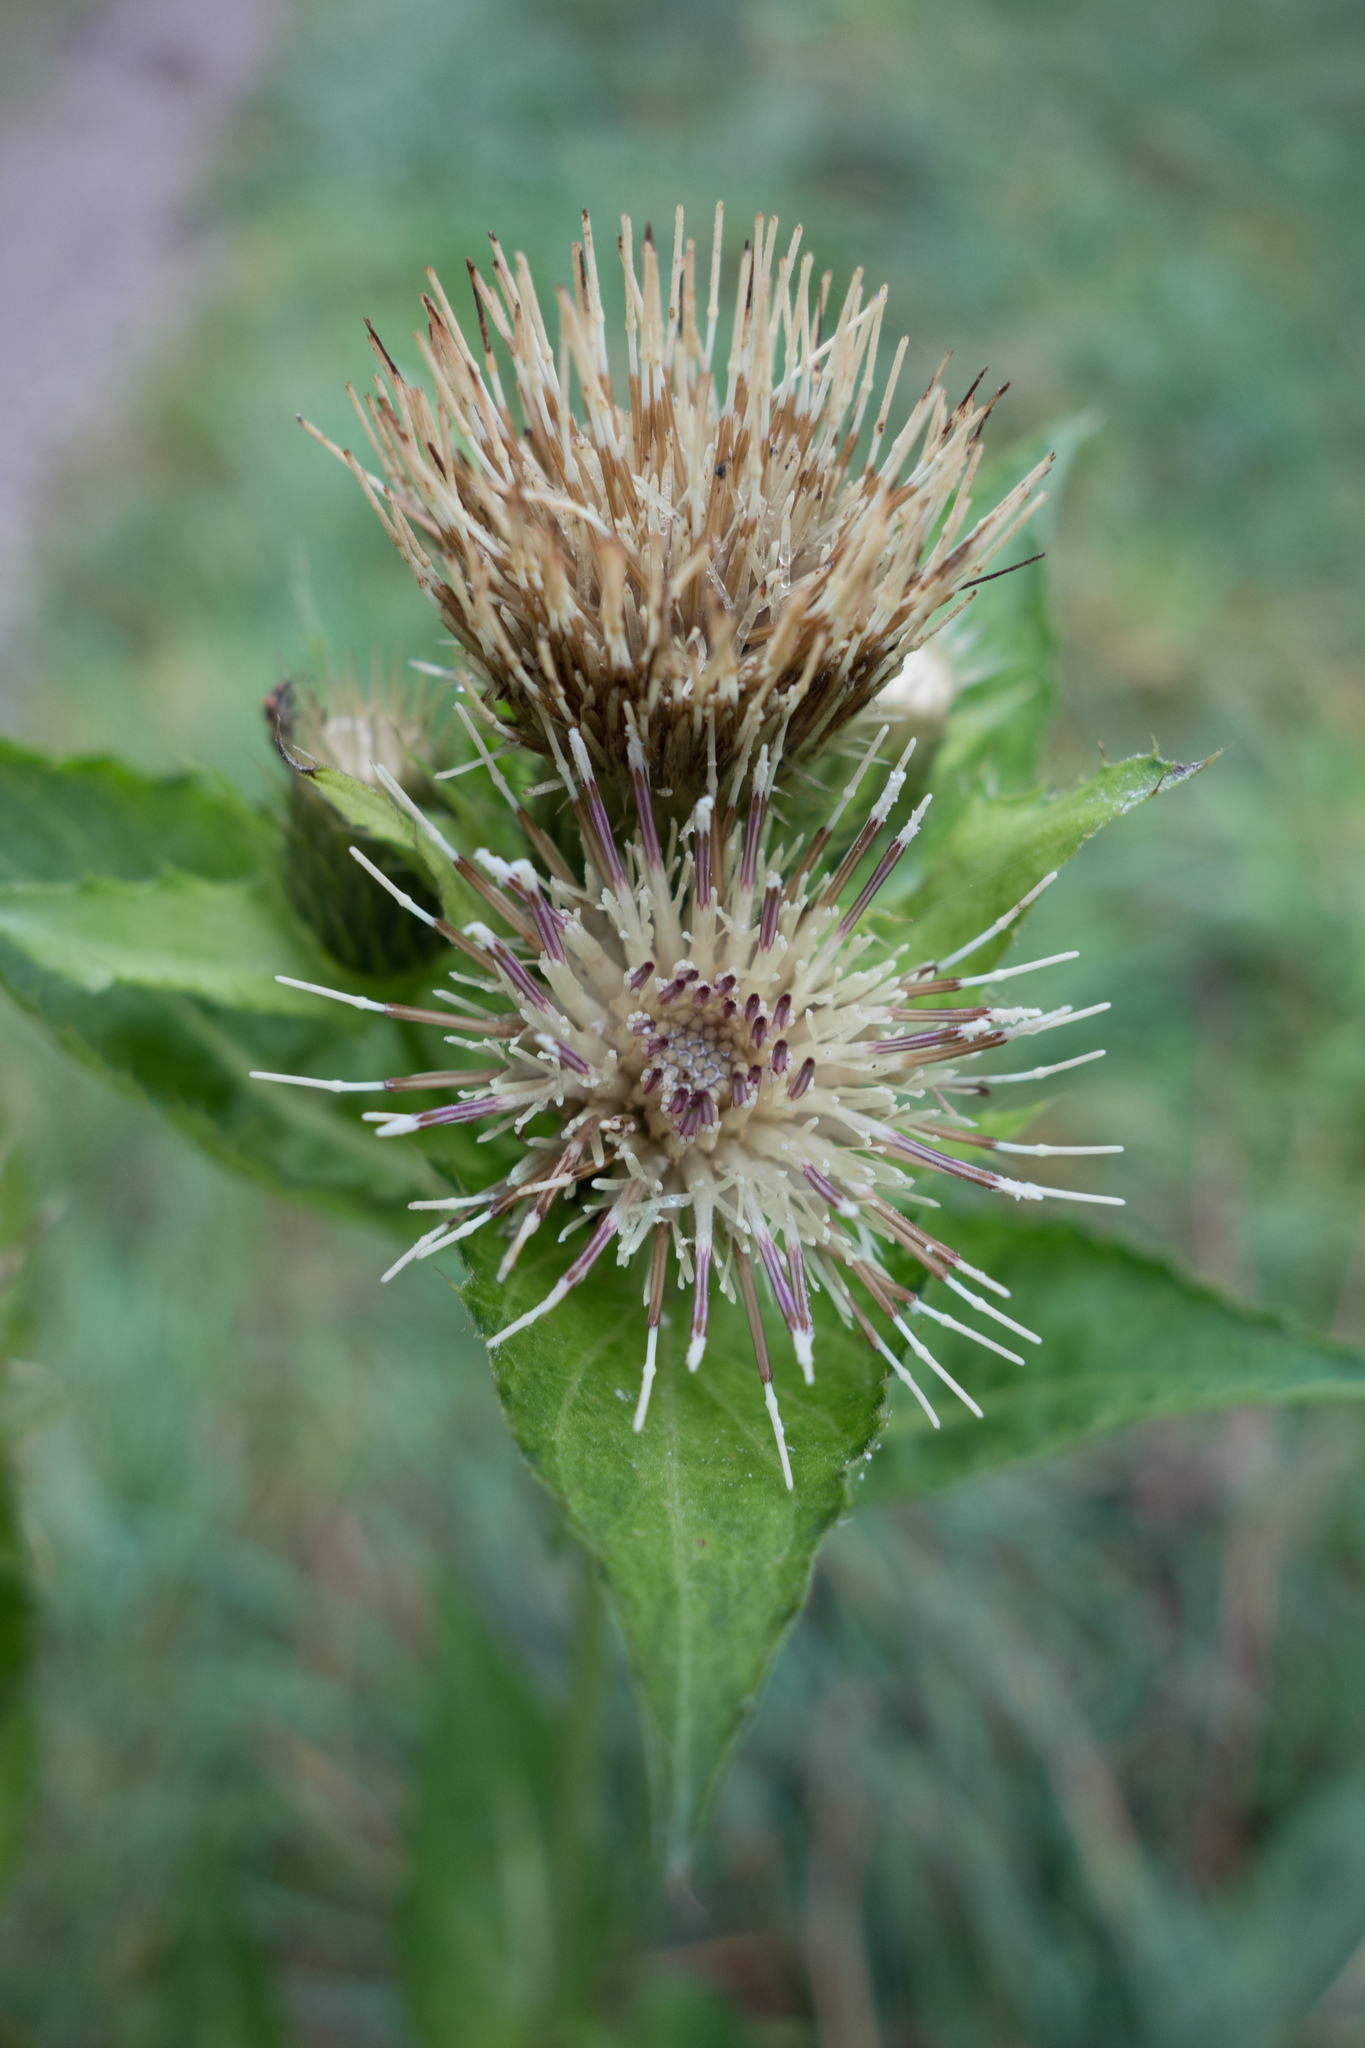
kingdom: Plantae
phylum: Tracheophyta
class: Magnoliopsida
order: Asterales
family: Asteraceae
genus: Cirsium
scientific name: Cirsium oleraceum
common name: Cabbage thistle
